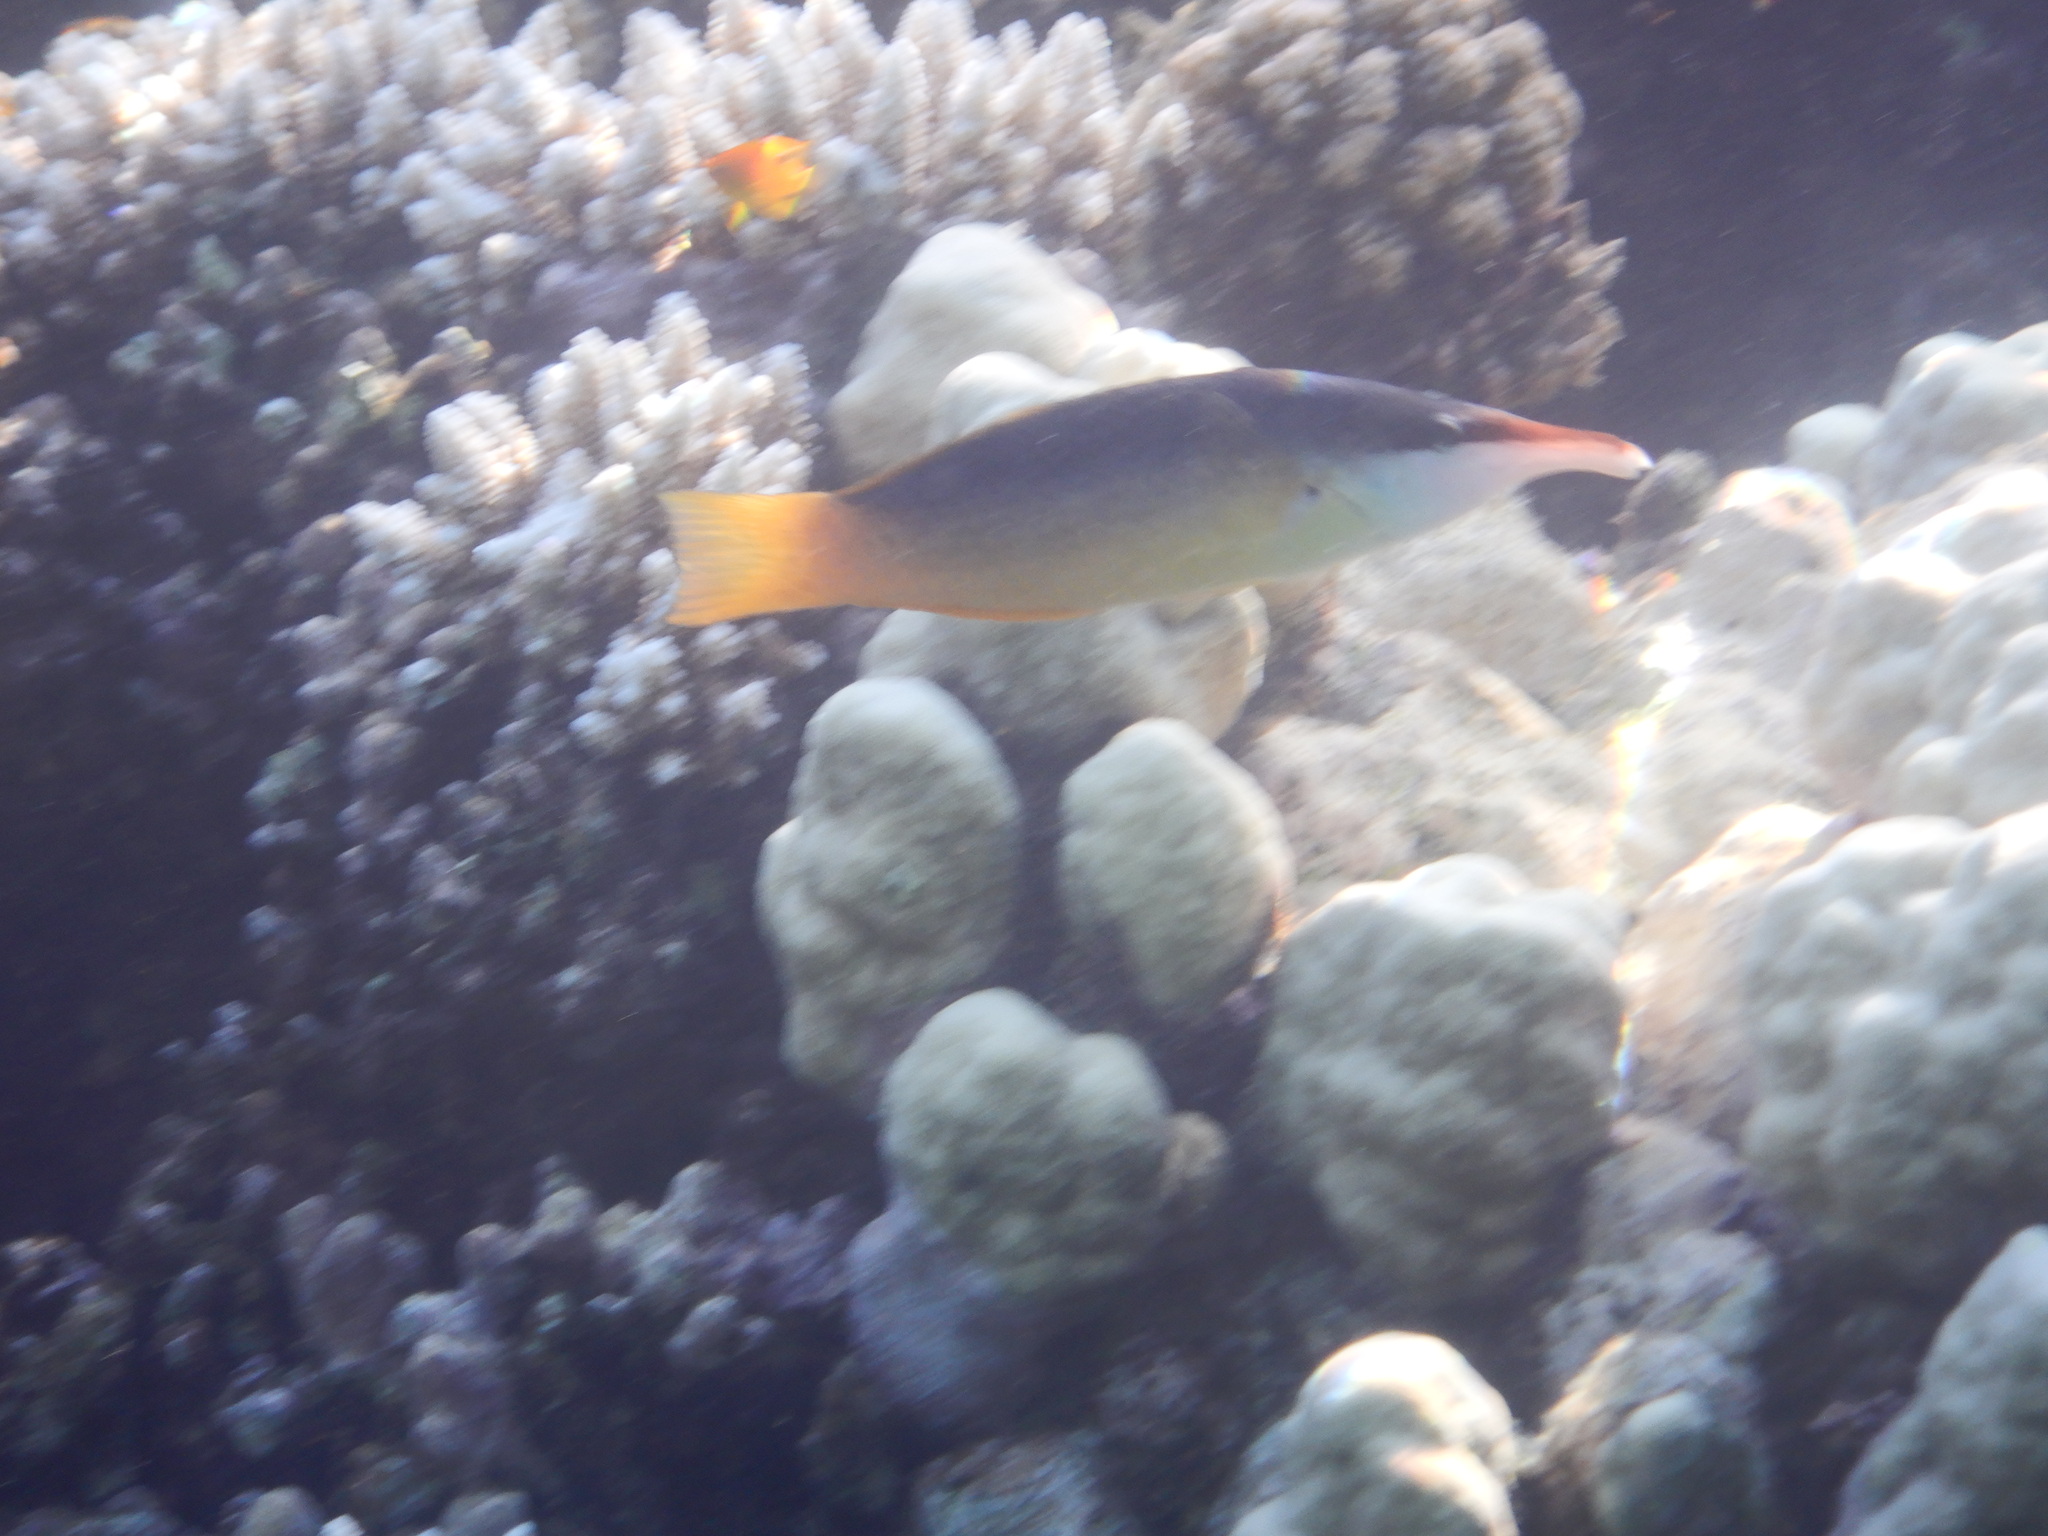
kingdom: Animalia
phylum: Chordata
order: Perciformes
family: Labridae
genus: Gomphosus
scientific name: Gomphosus klunzingeri
